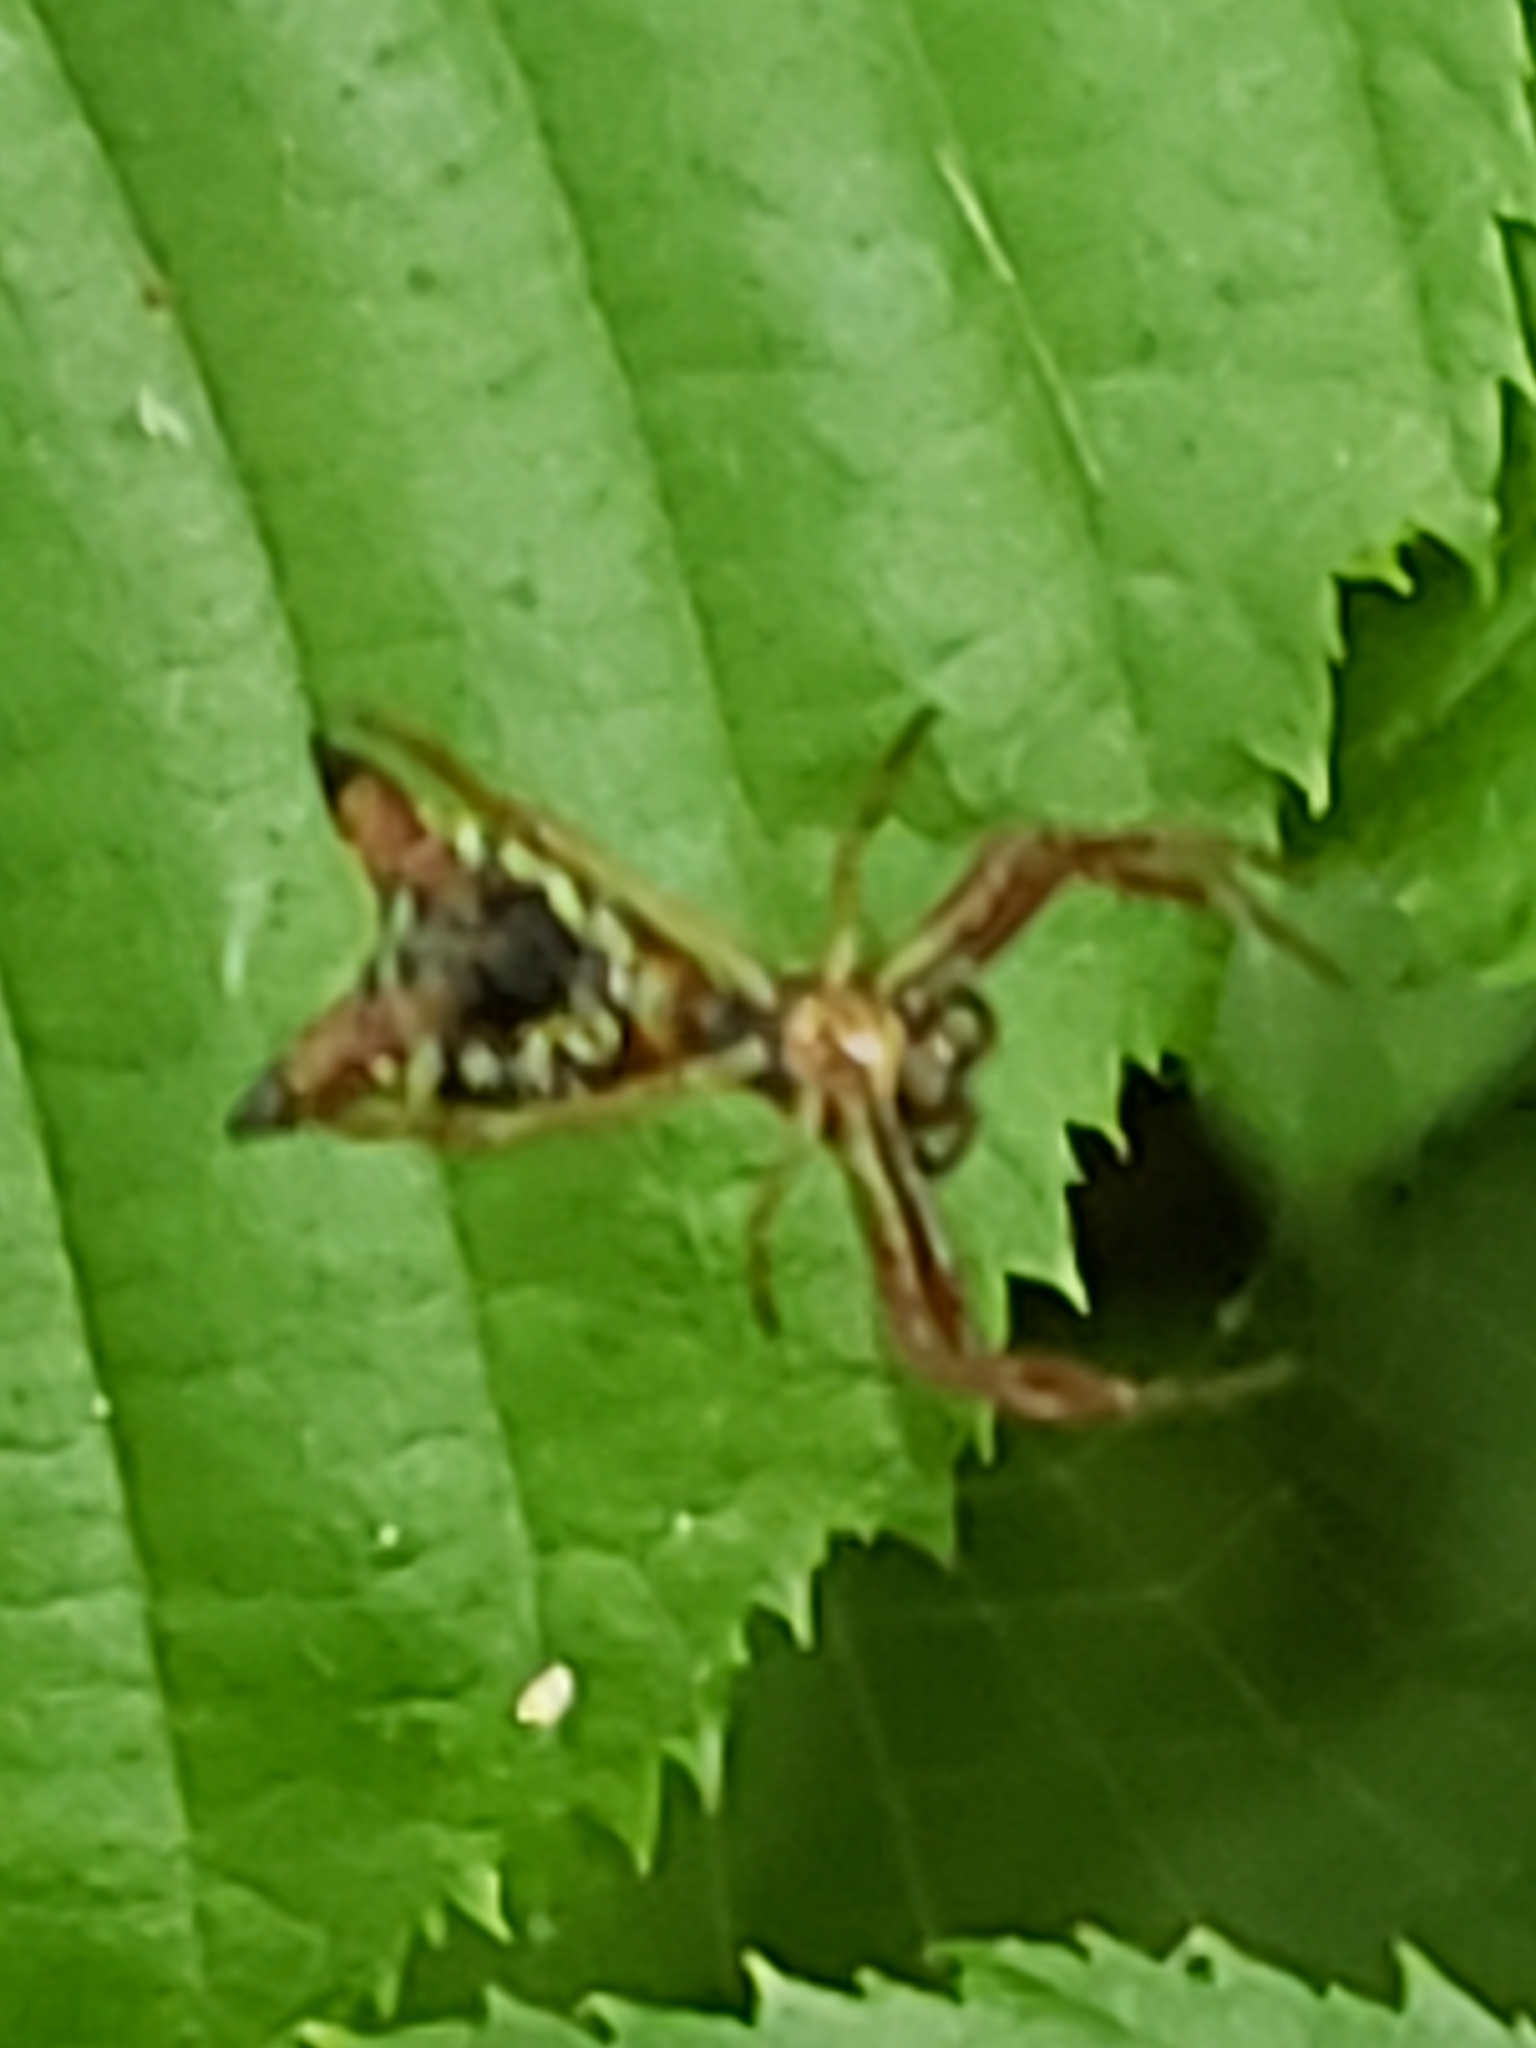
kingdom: Animalia
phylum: Arthropoda
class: Arachnida
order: Araneae
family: Araneidae
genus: Micrathena
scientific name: Micrathena sagittata
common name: Orb weavers
